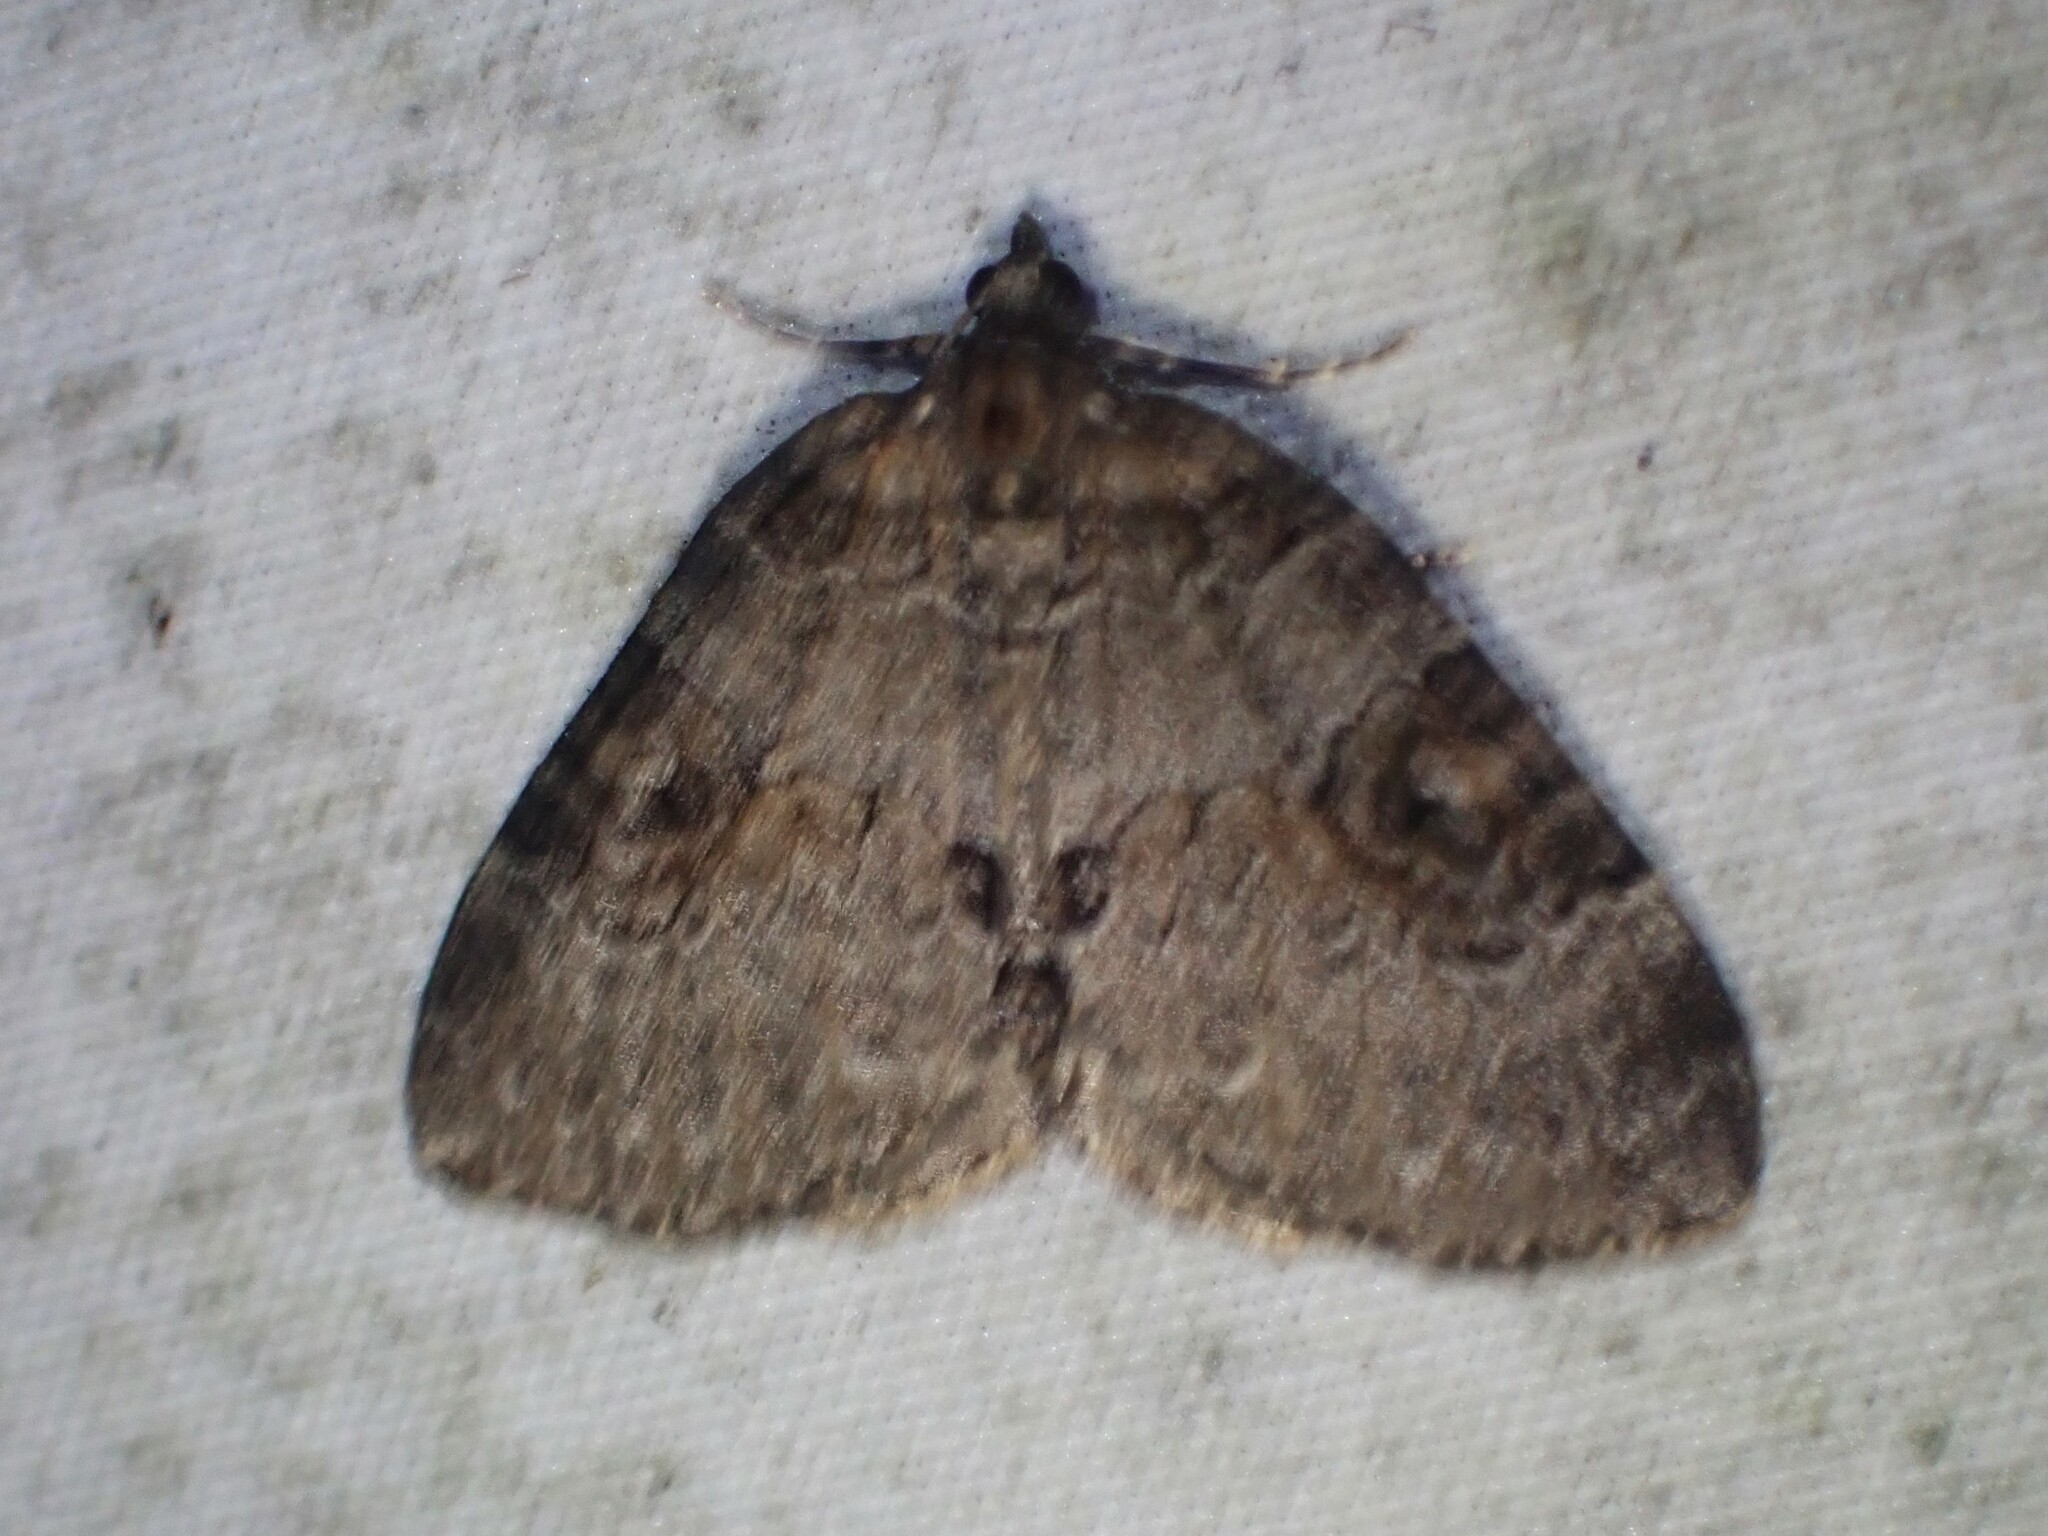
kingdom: Animalia
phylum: Arthropoda
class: Insecta
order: Lepidoptera
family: Geometridae
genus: Plemyria
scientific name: Plemyria georgii
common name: George's carpet moth
